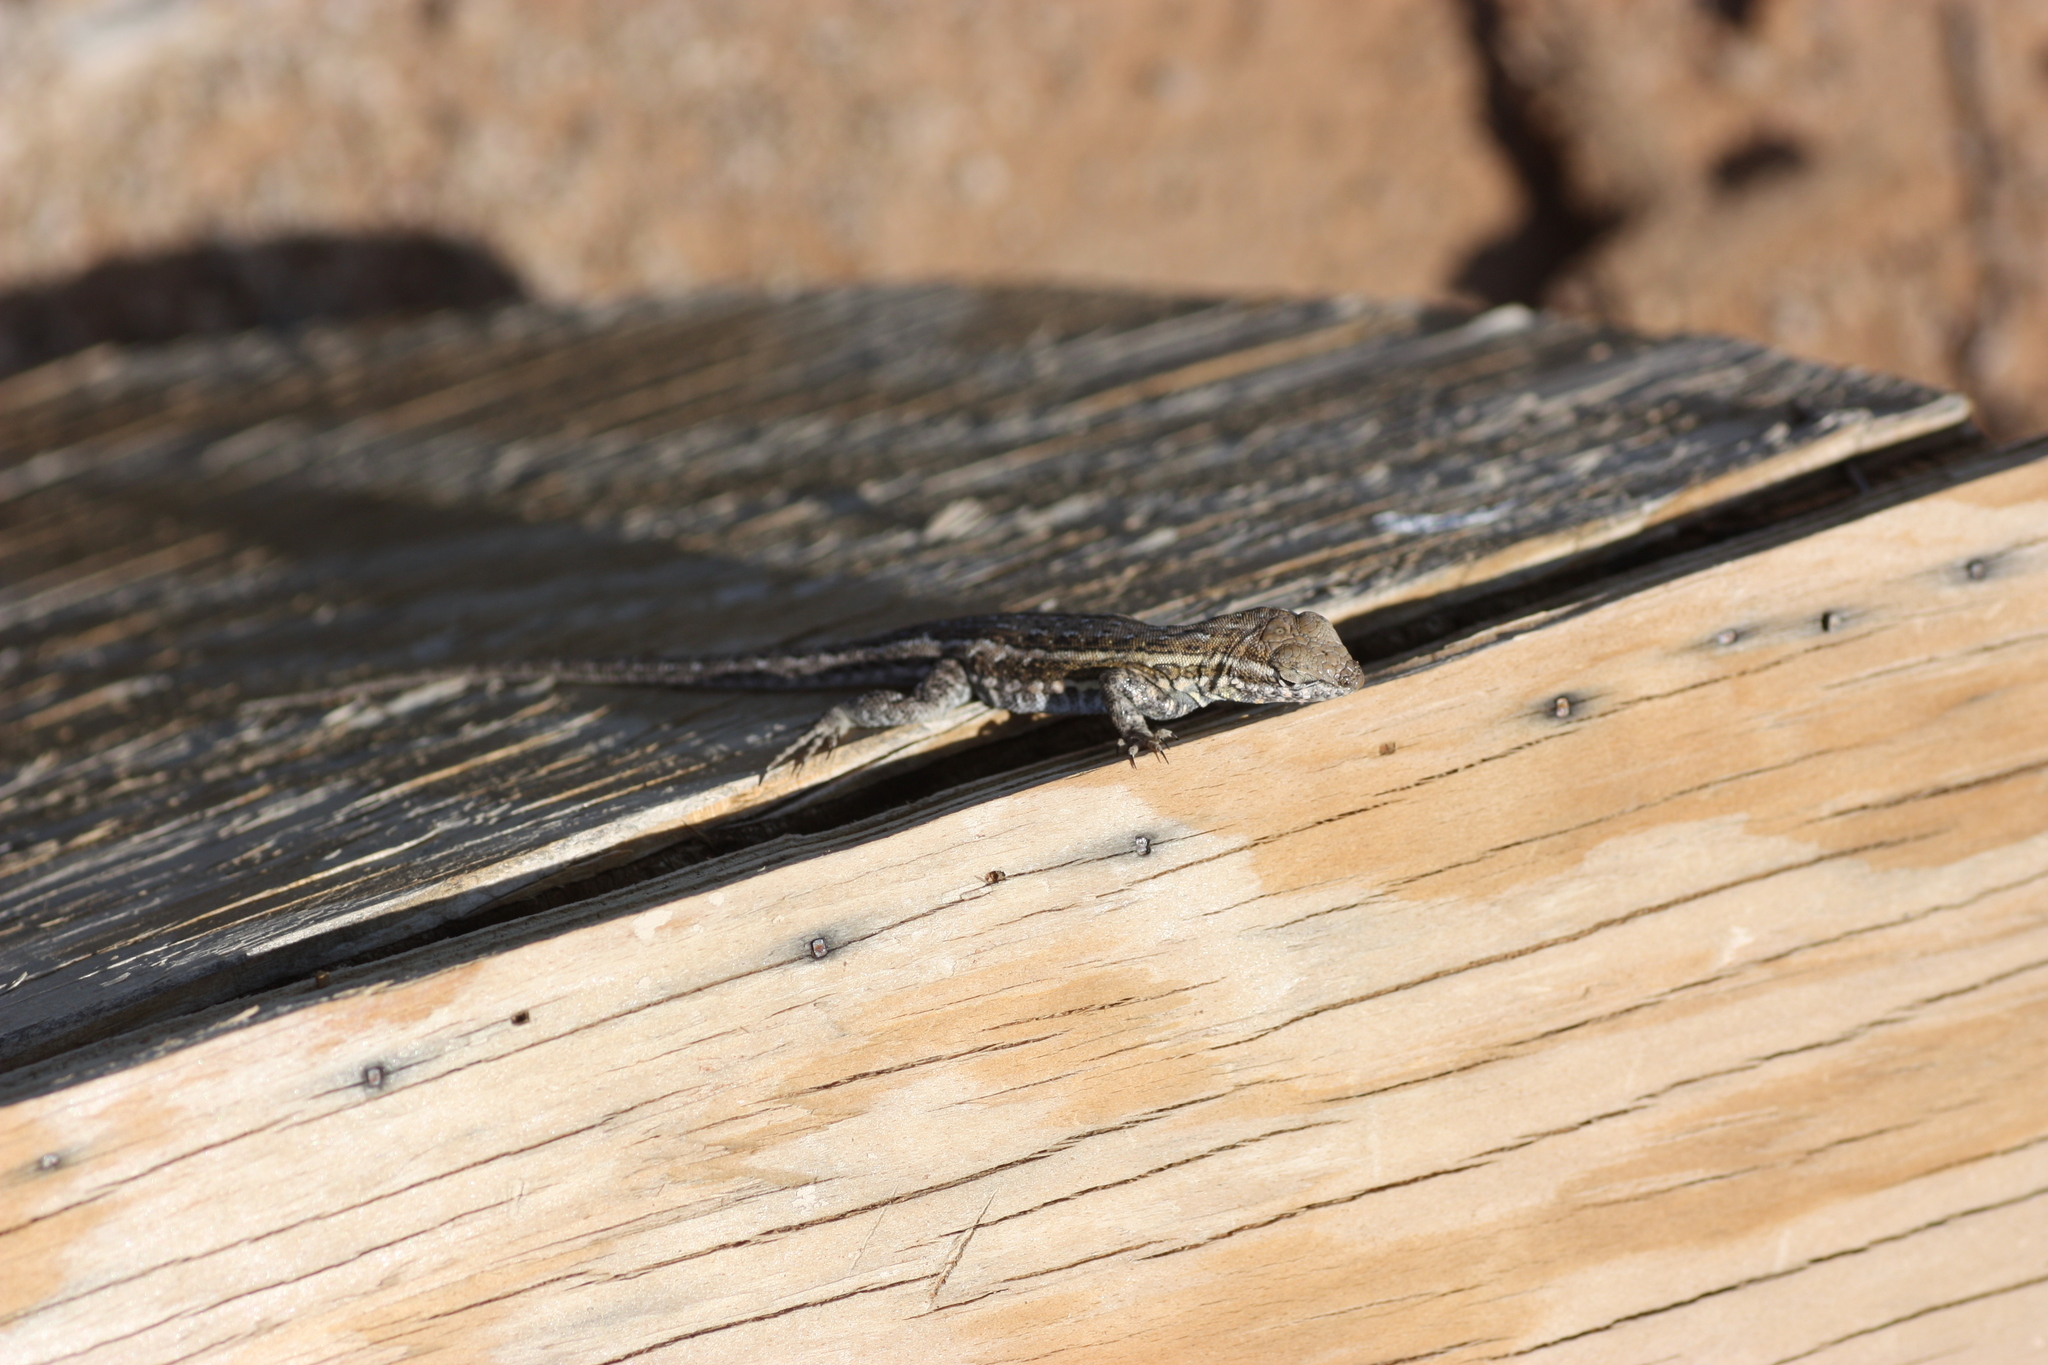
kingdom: Animalia
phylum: Chordata
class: Squamata
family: Phrynosomatidae
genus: Uta
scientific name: Uta stansburiana
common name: Side-blotched lizard
